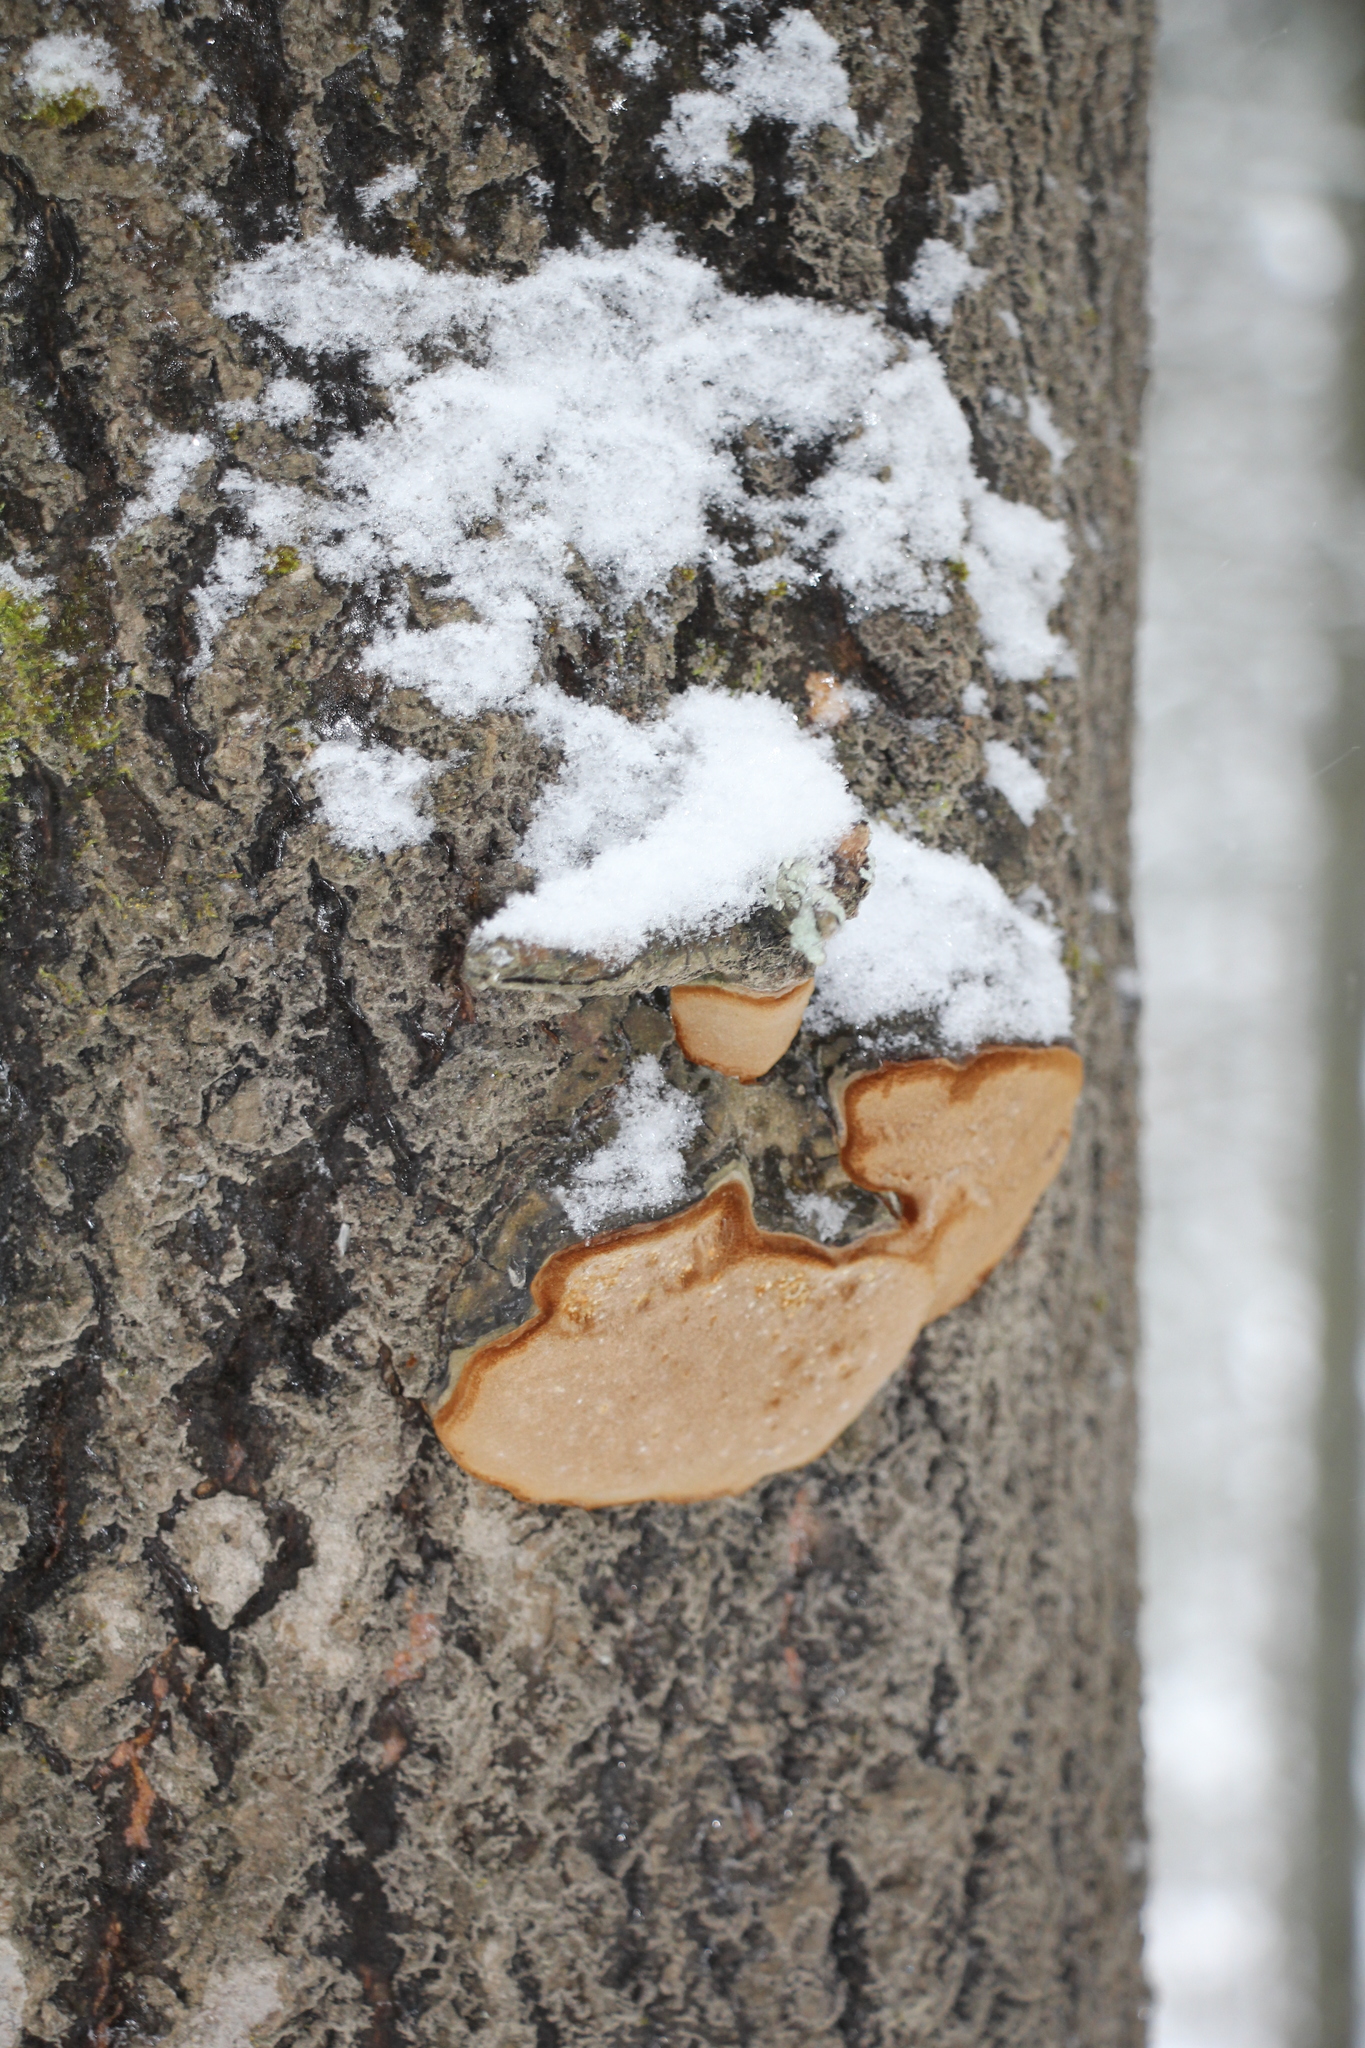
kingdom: Fungi
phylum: Basidiomycota
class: Agaricomycetes
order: Hymenochaetales
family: Hymenochaetaceae
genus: Phellinus
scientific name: Phellinus populicola
